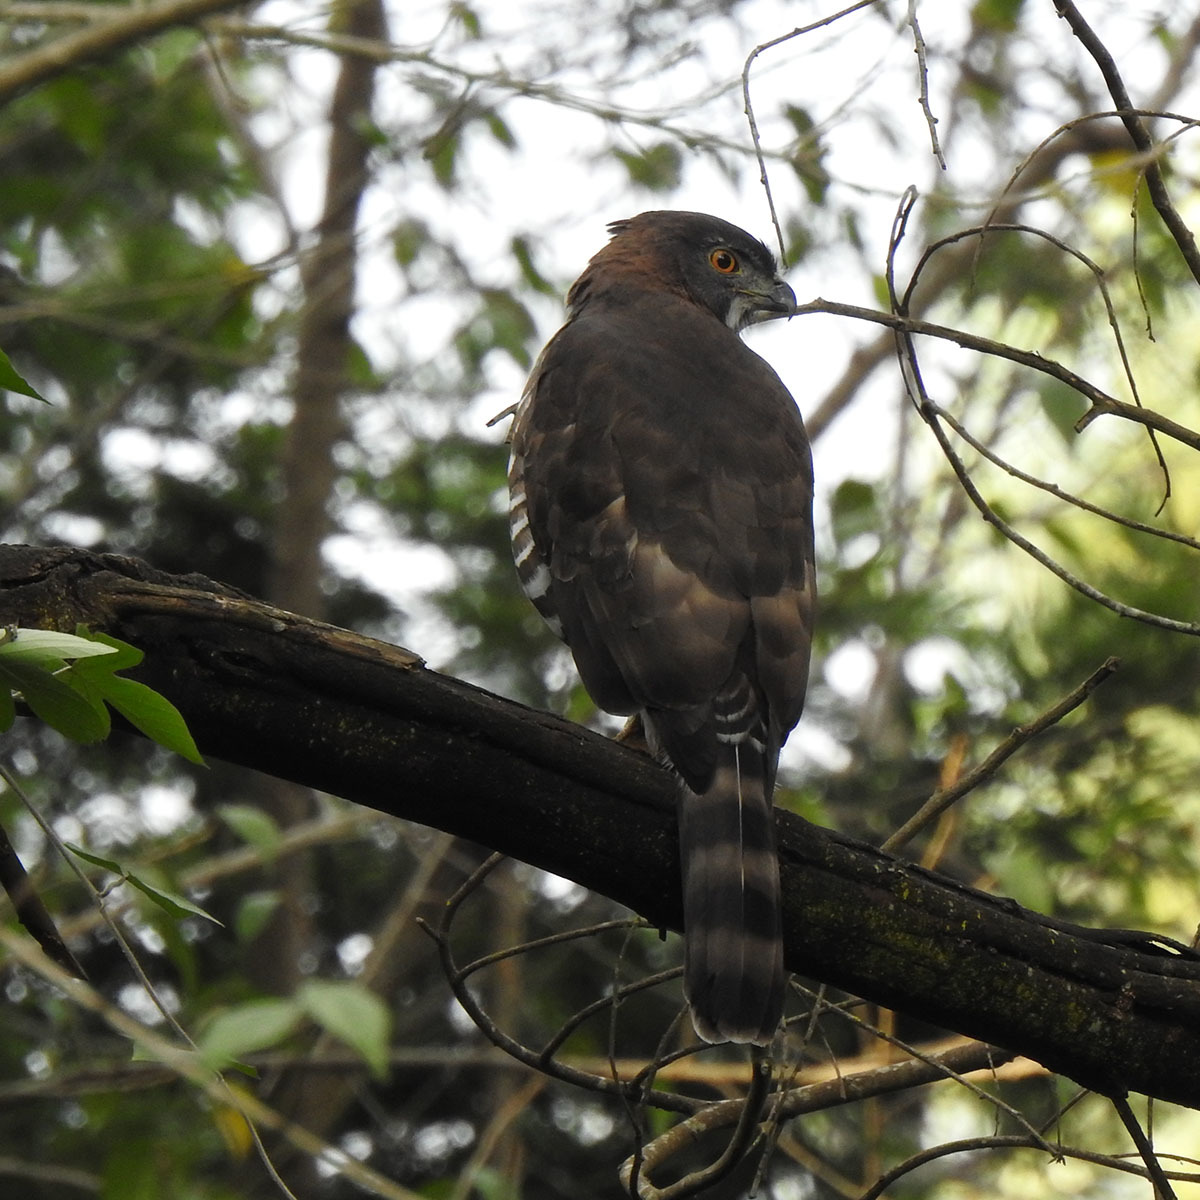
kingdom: Animalia
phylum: Chordata
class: Aves
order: Accipitriformes
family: Accipitridae
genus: Accipiter
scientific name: Accipiter trivirgatus
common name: Crested goshawk
